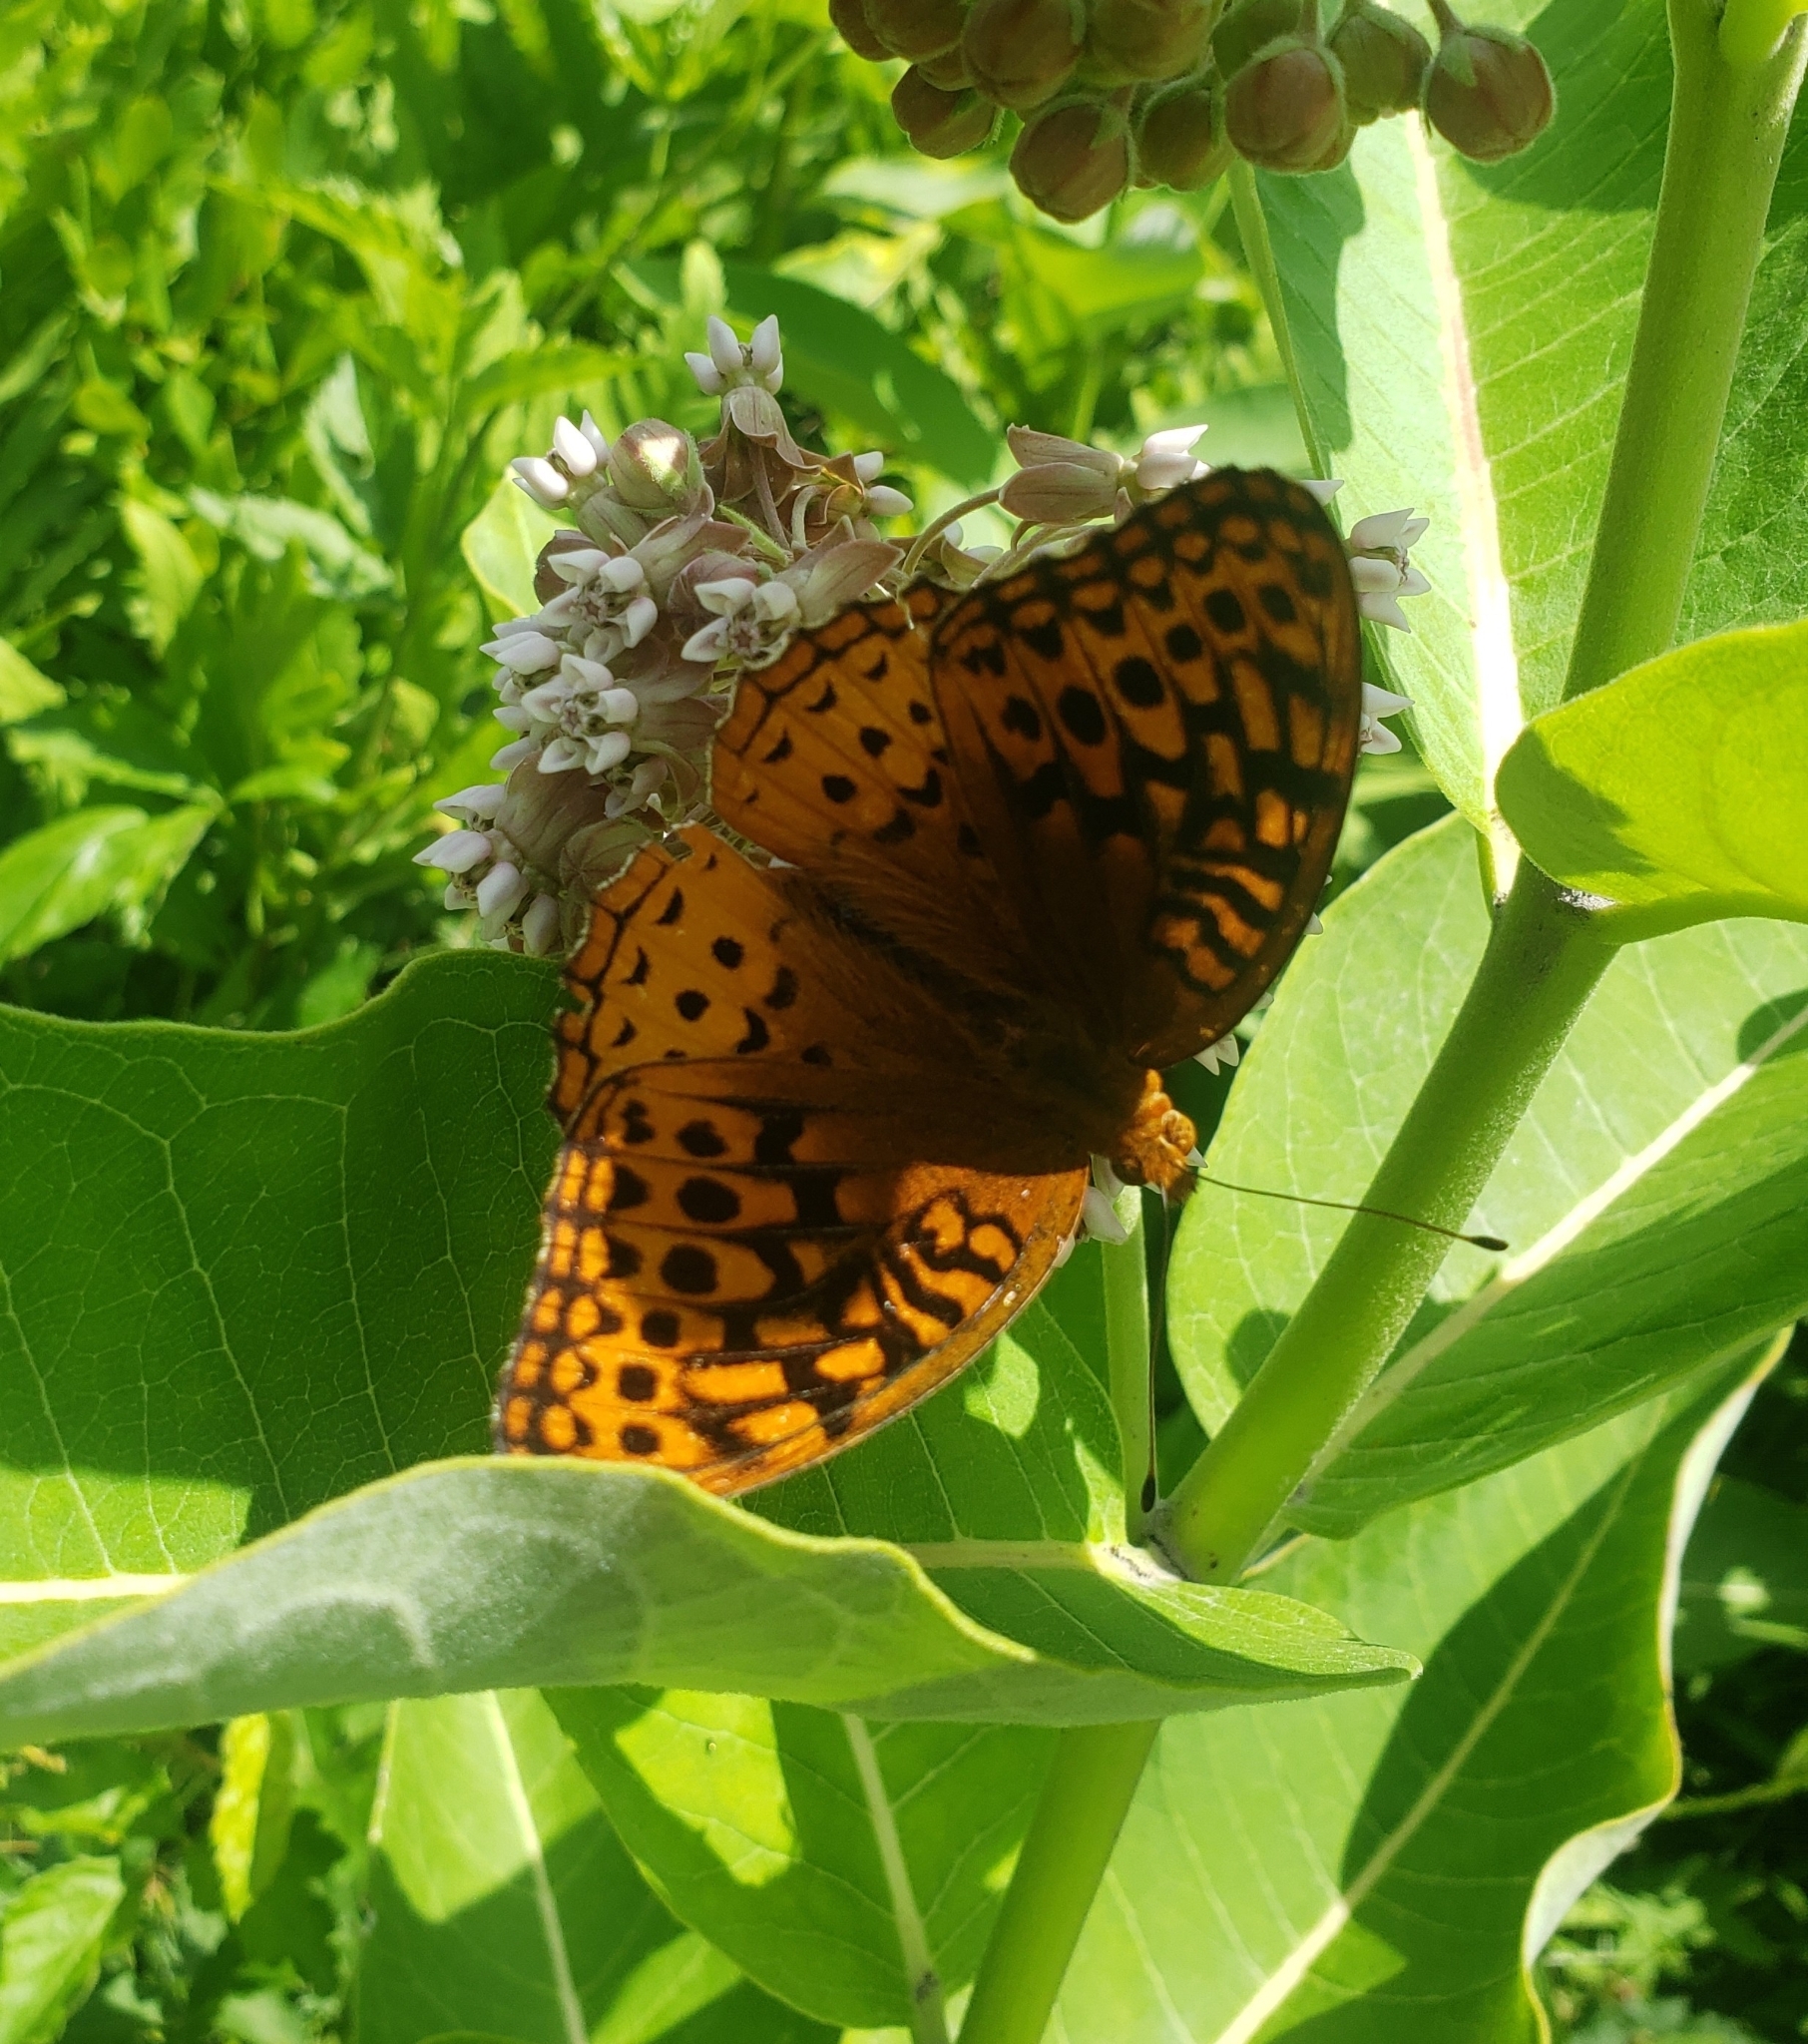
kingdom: Animalia
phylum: Arthropoda
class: Insecta
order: Lepidoptera
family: Nymphalidae
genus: Speyeria
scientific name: Speyeria cybele
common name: Great spangled fritillary
